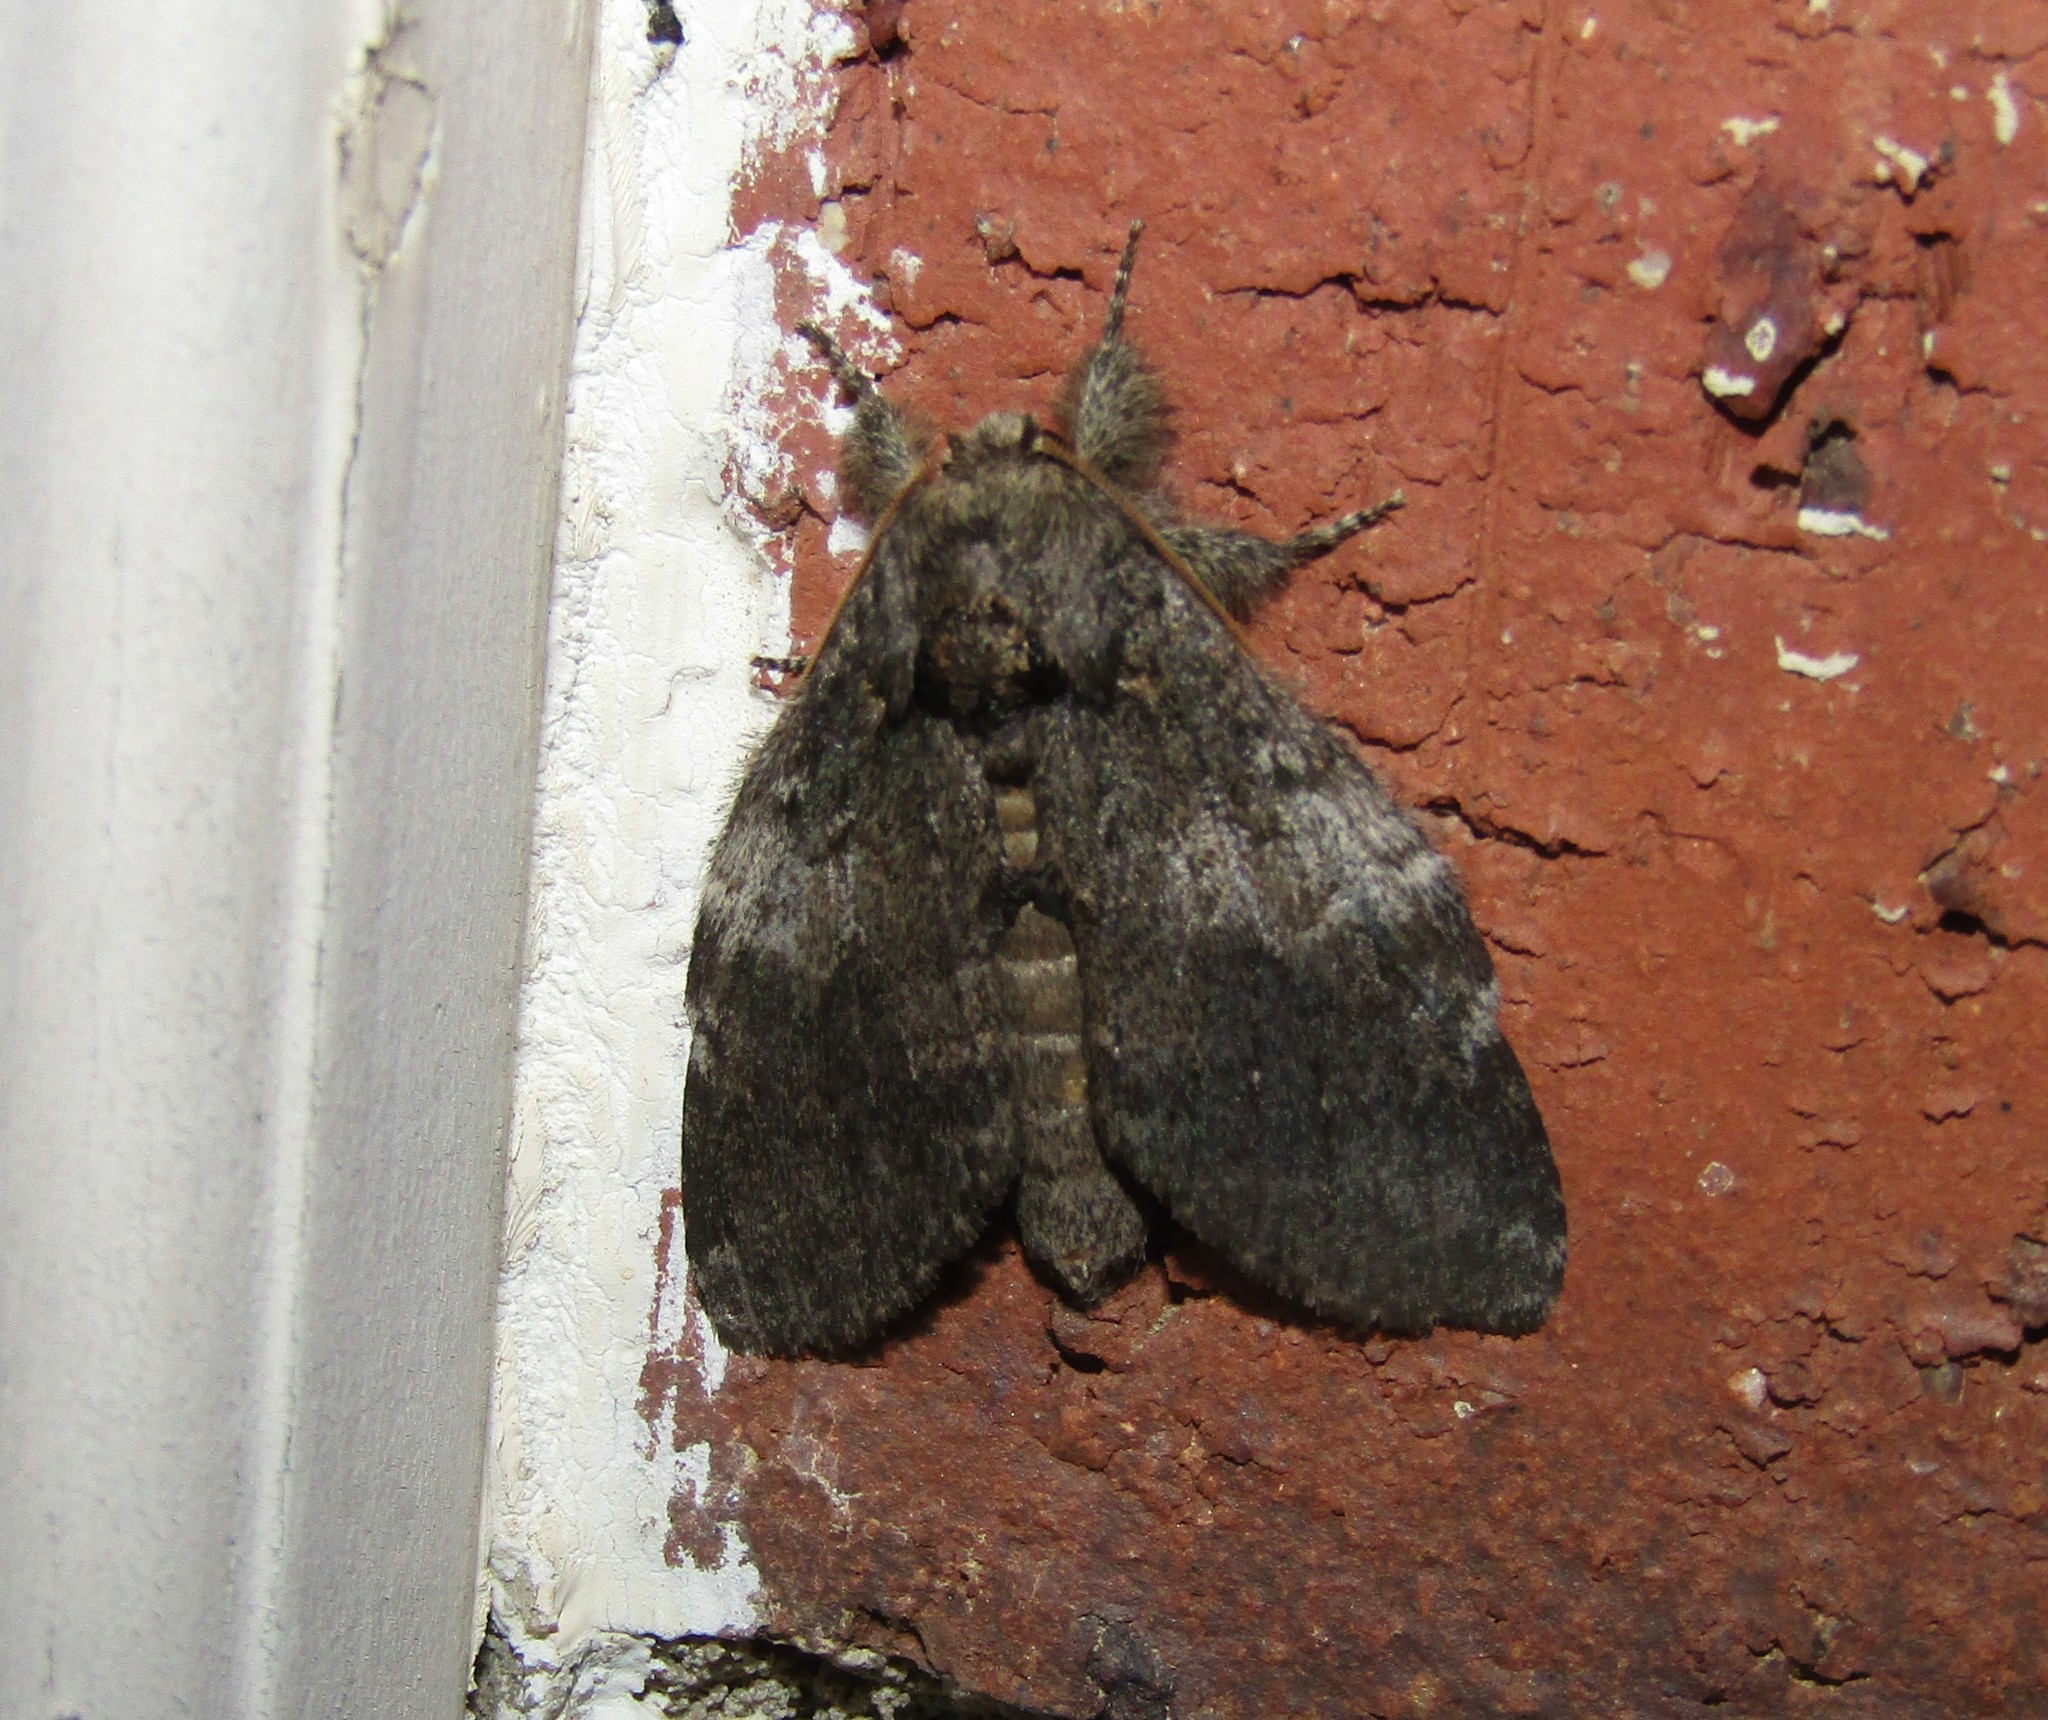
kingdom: Animalia
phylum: Arthropoda
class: Insecta
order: Lepidoptera
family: Notodontidae
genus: Peridea
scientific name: Peridea angulosa
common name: Angulose prominent
